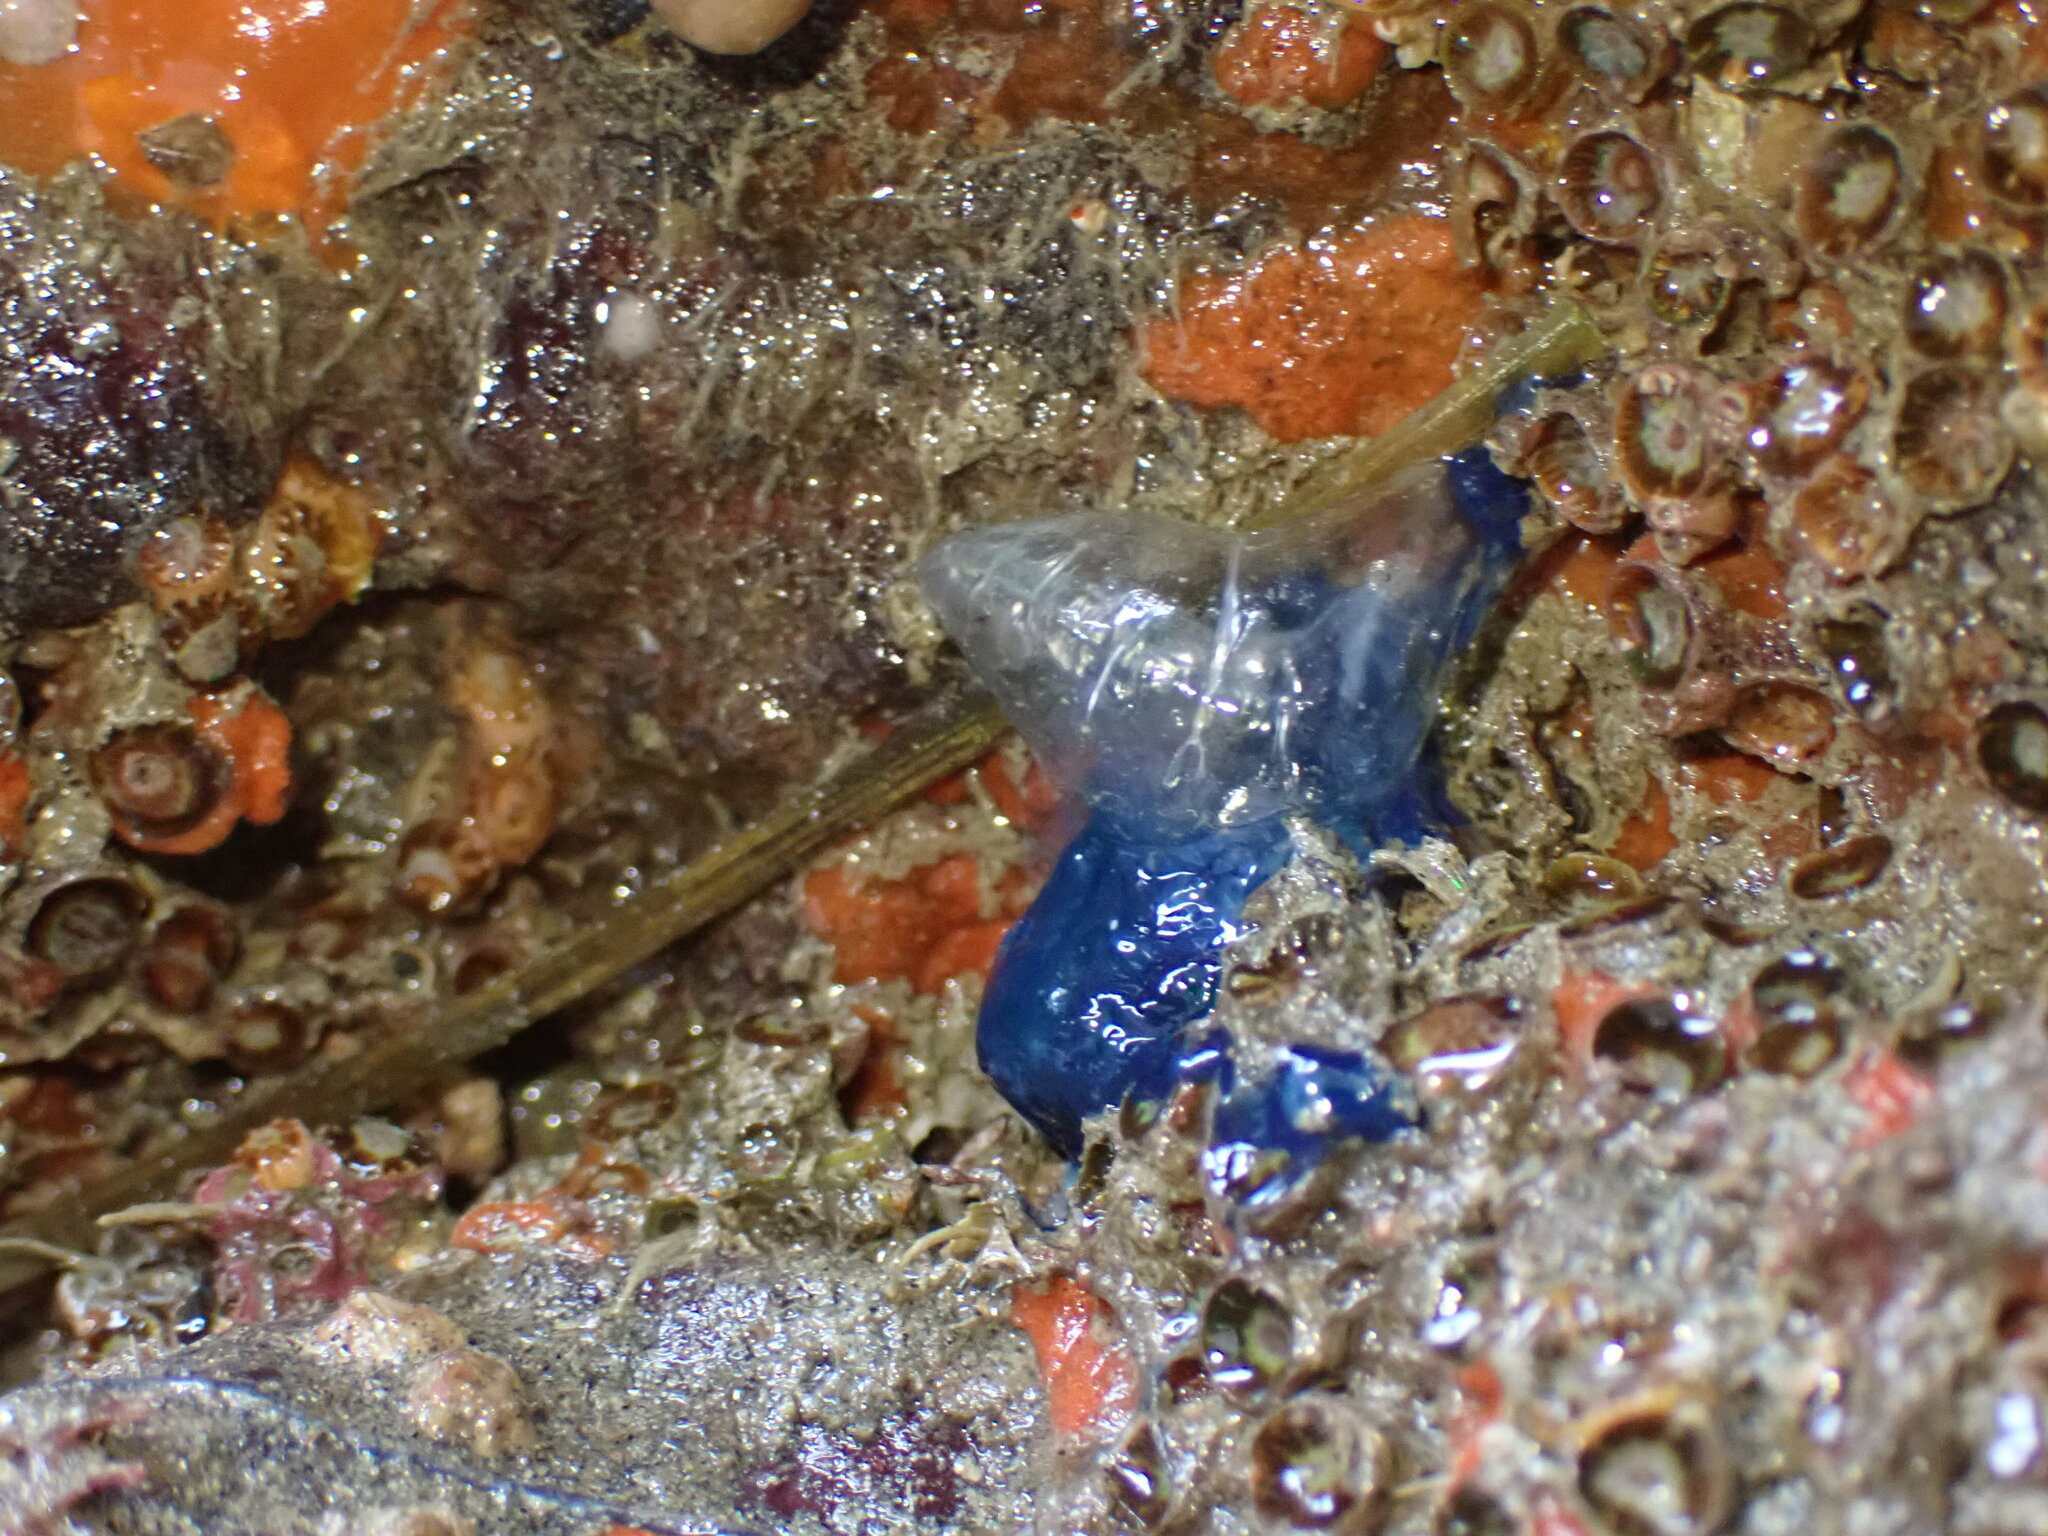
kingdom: Animalia
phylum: Cnidaria
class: Hydrozoa
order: Siphonophorae
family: Physaliidae
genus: Physalia
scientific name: Physalia physalis
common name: Portuguese man-of-war
